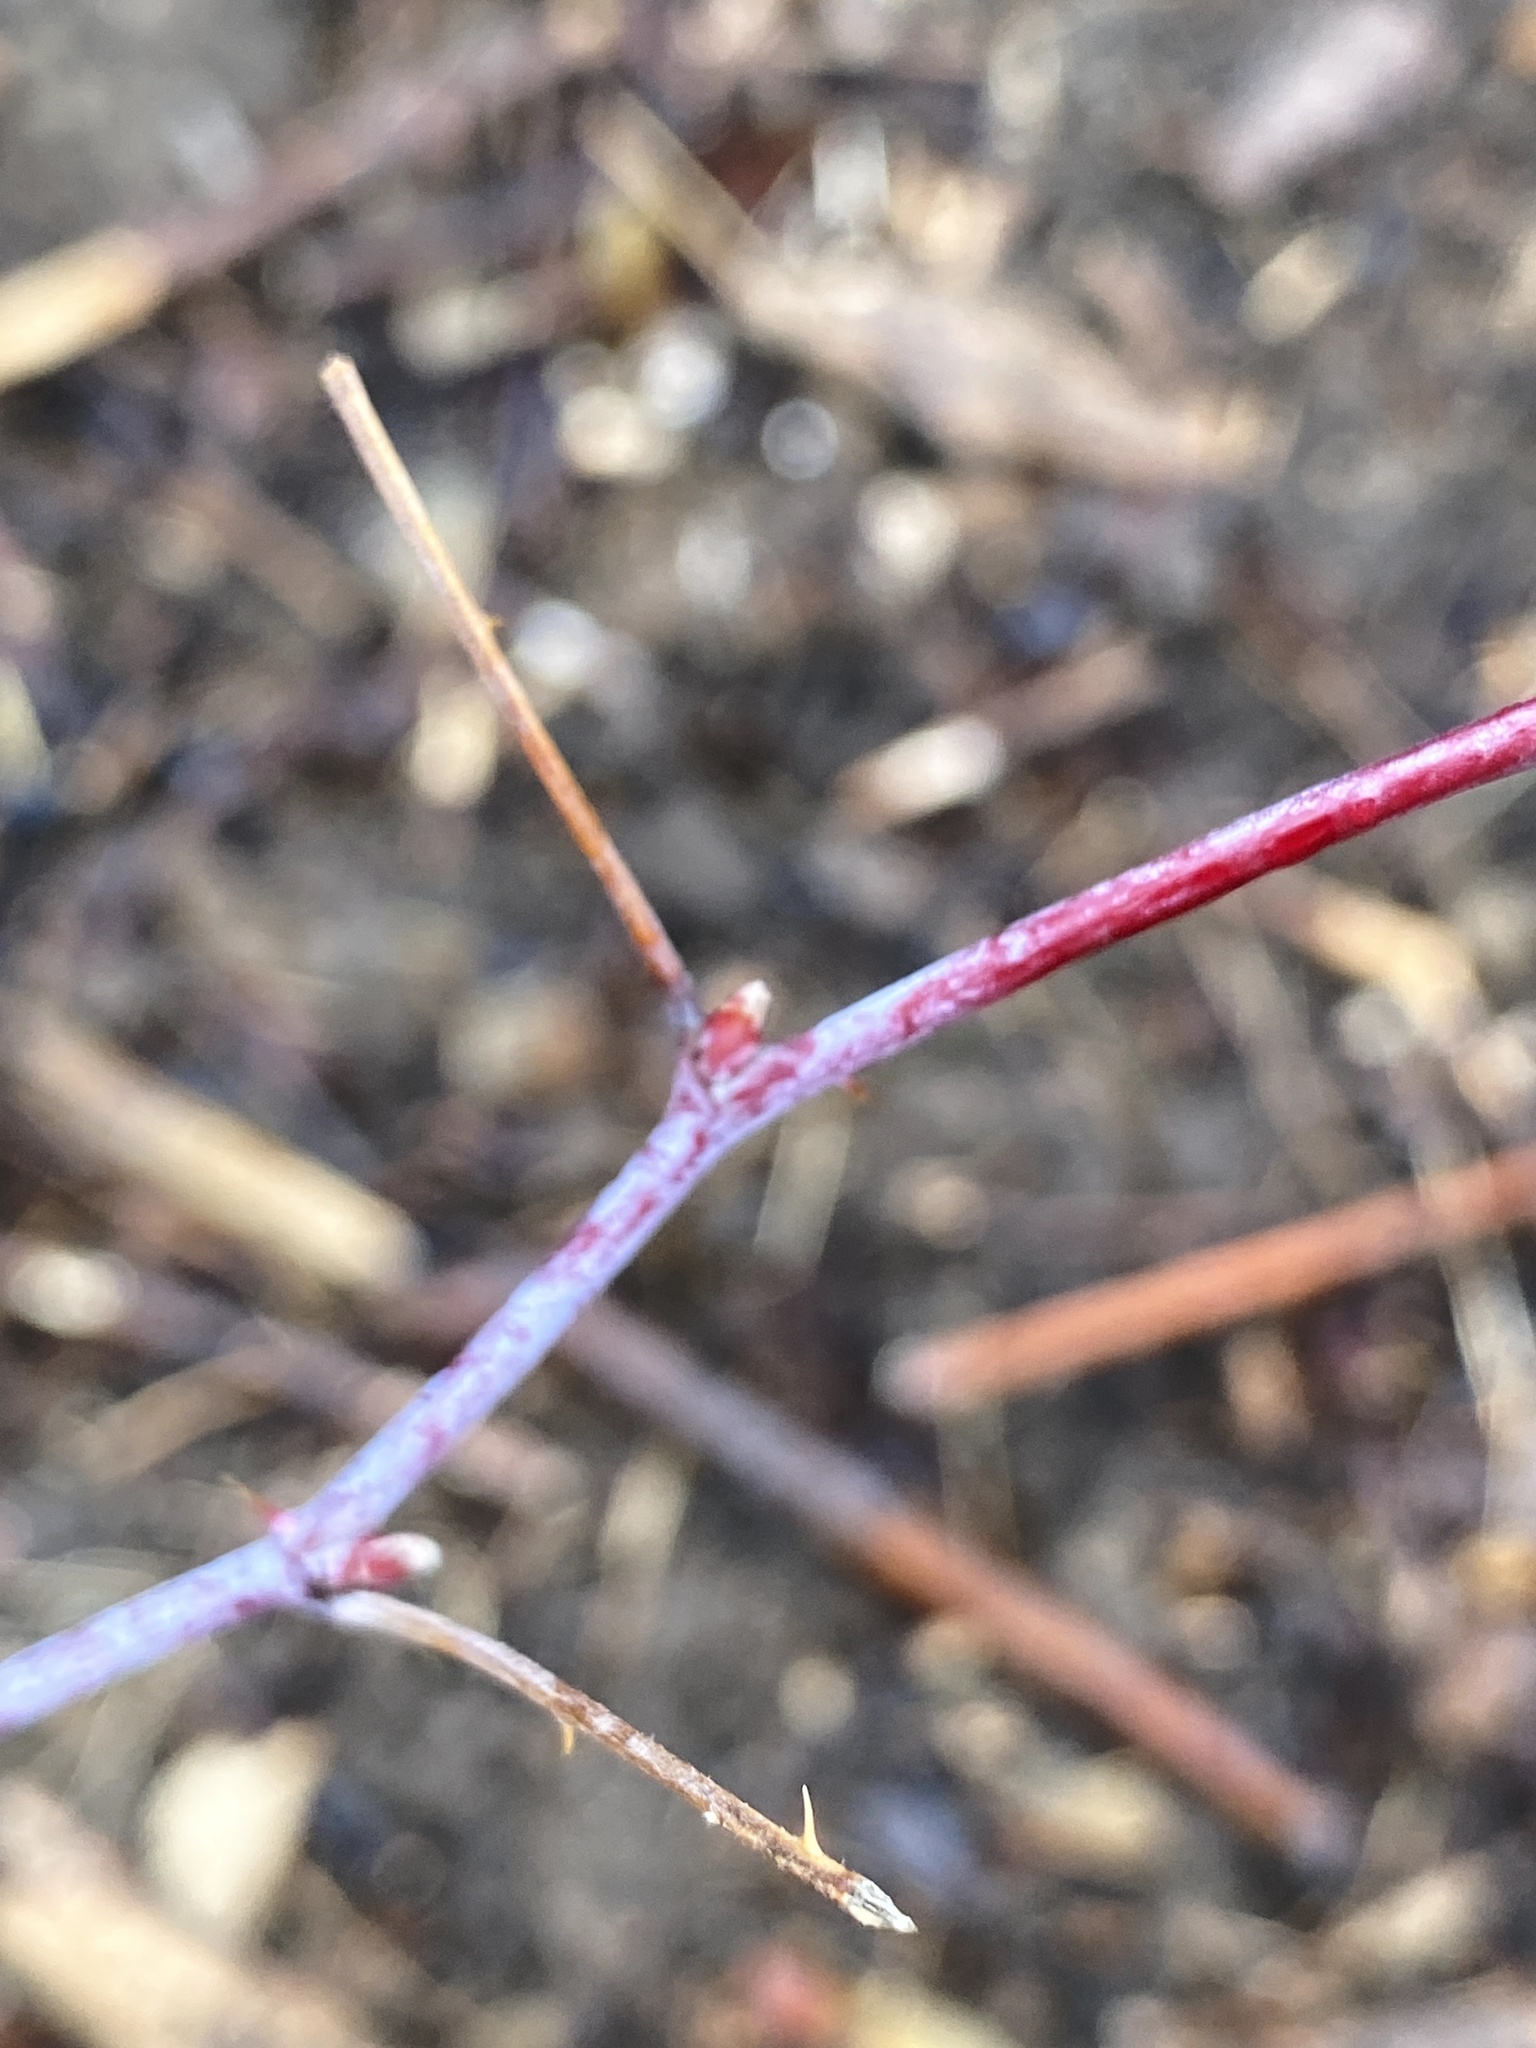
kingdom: Plantae
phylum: Tracheophyta
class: Magnoliopsida
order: Rosales
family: Rosaceae
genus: Rubus
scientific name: Rubus occidentalis
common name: Black raspberry
